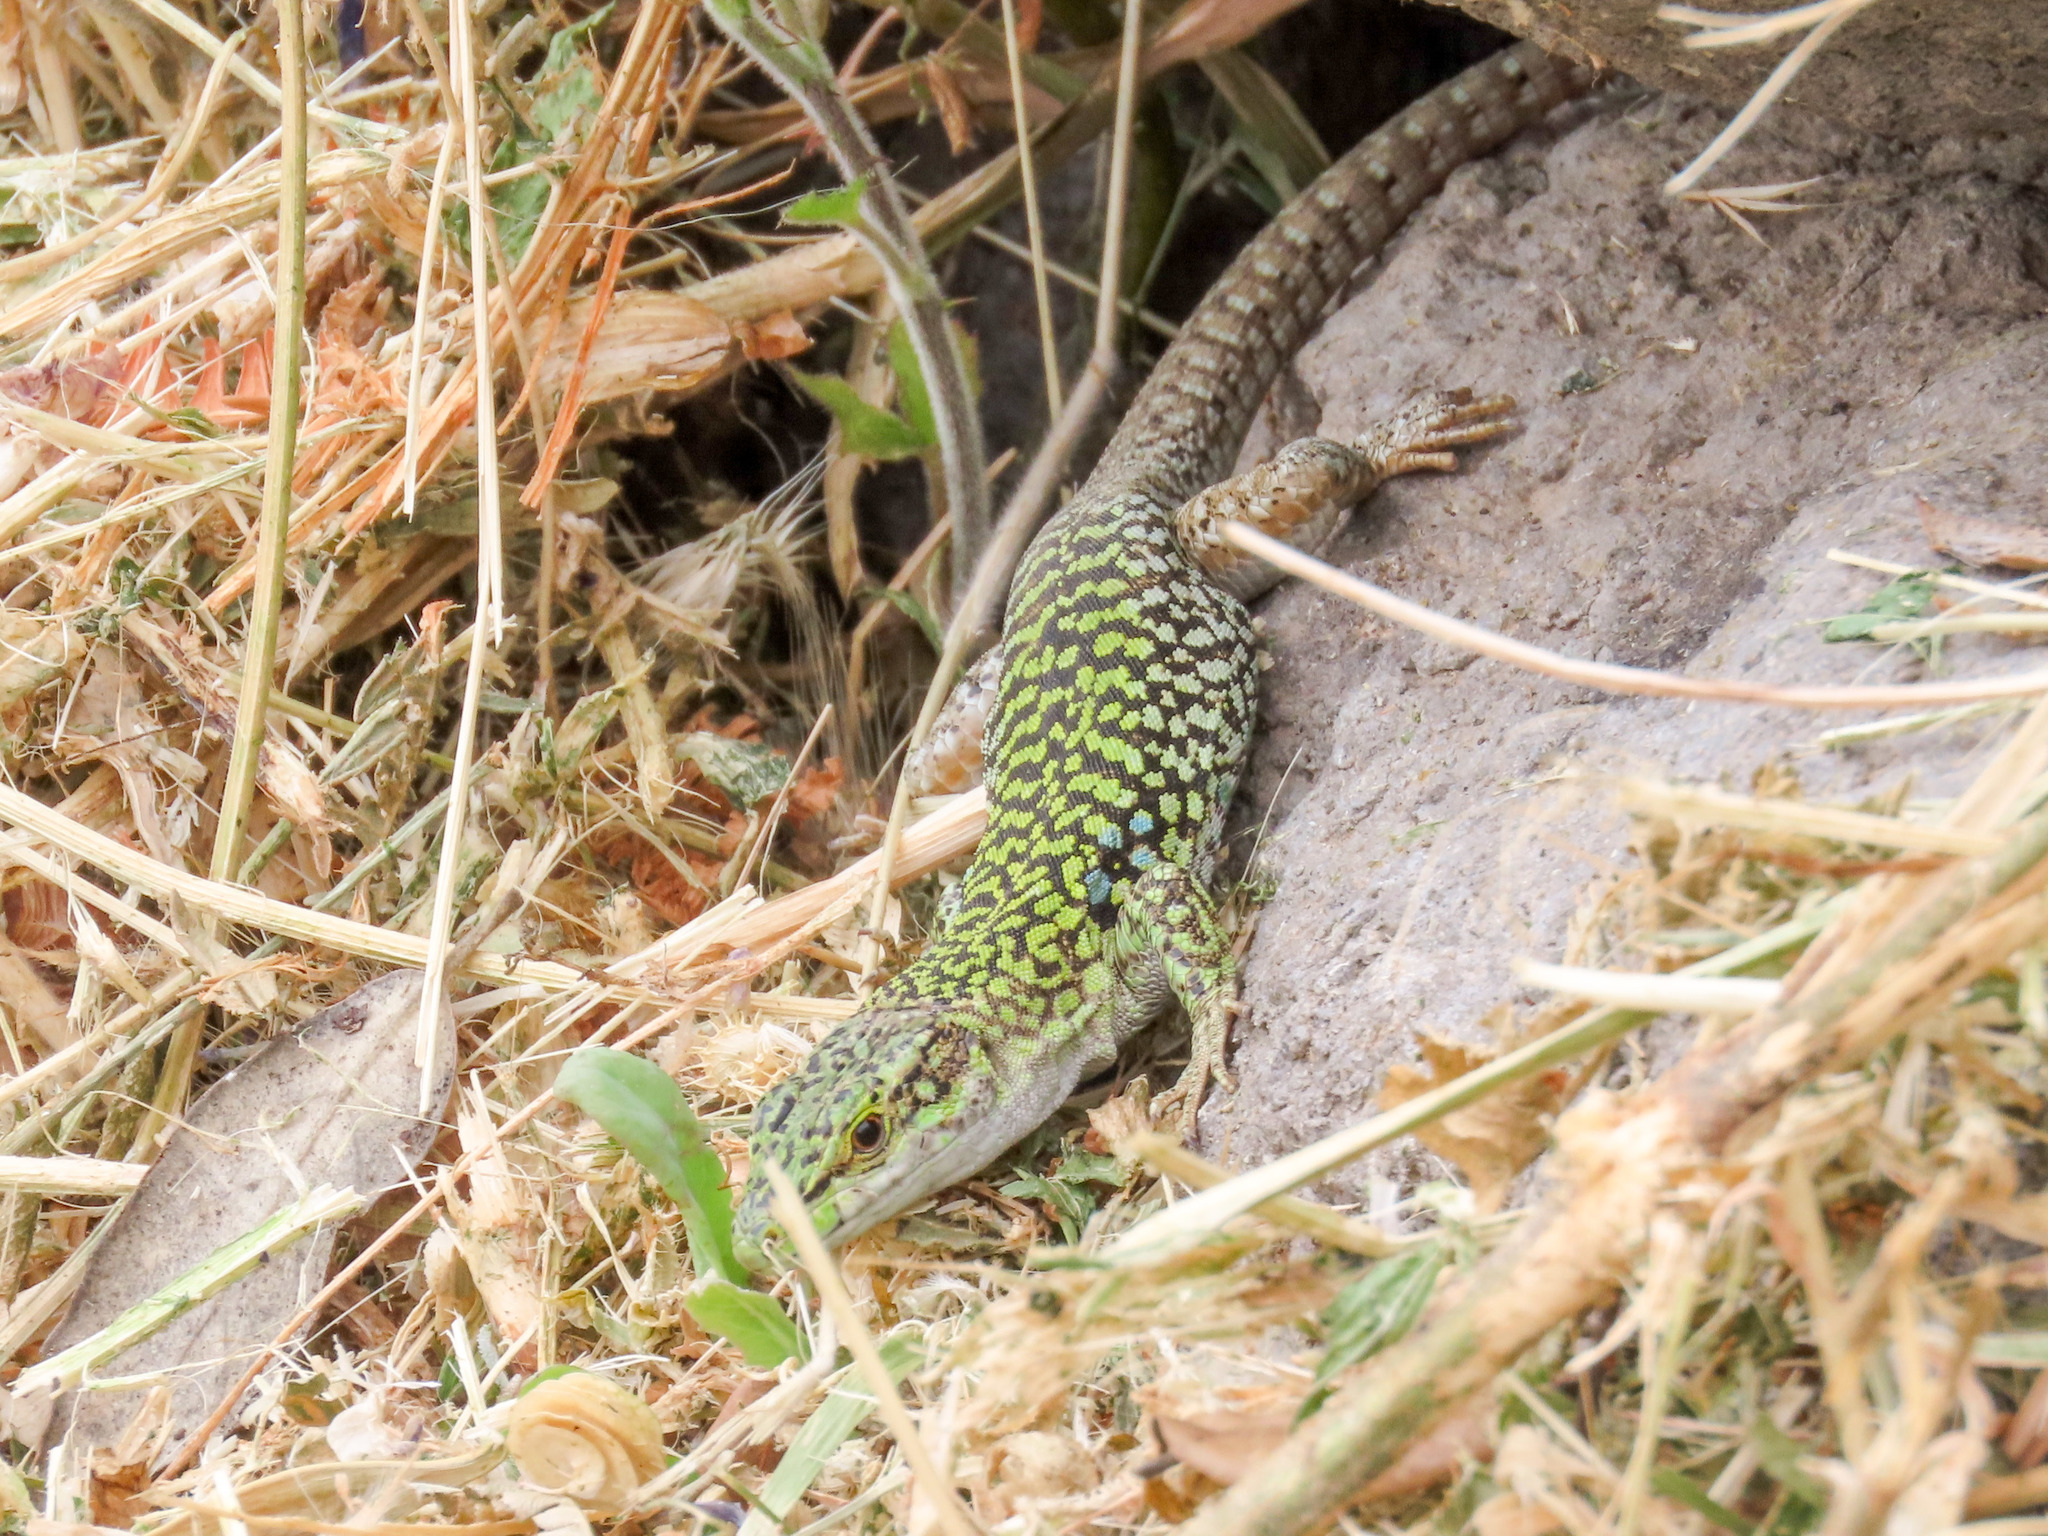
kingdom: Animalia
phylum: Chordata
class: Squamata
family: Lacertidae
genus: Podarcis
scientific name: Podarcis siculus
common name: Italian wall lizard
